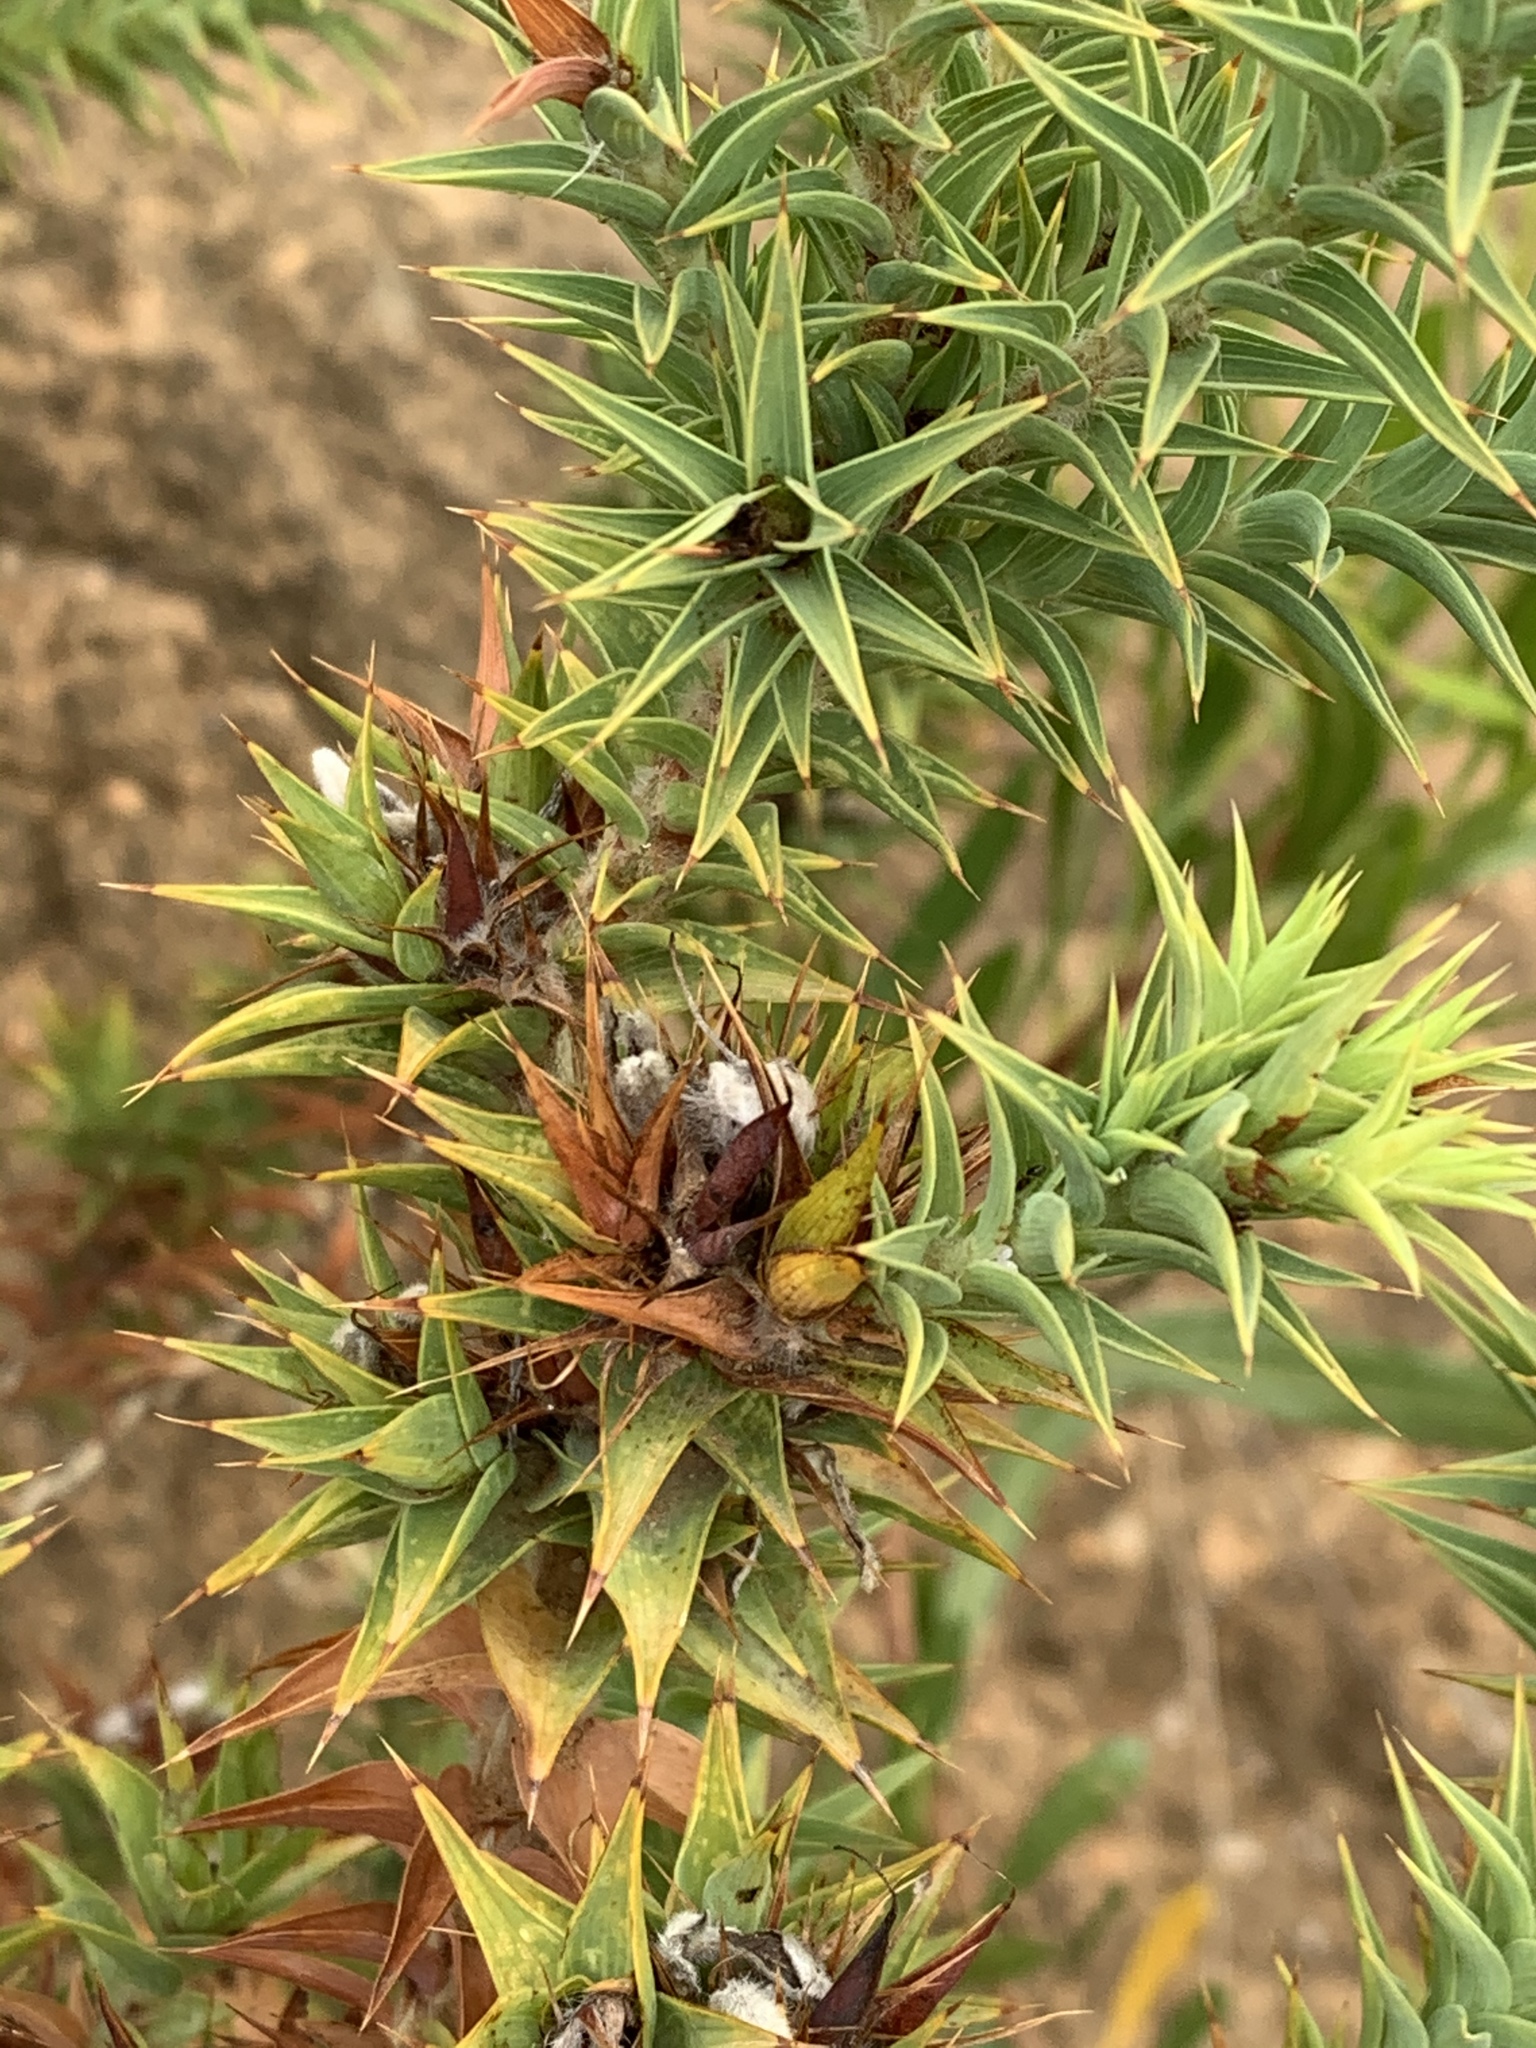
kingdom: Plantae
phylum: Tracheophyta
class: Magnoliopsida
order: Fabales
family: Fabaceae
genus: Aspalathus
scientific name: Aspalathus cordata
